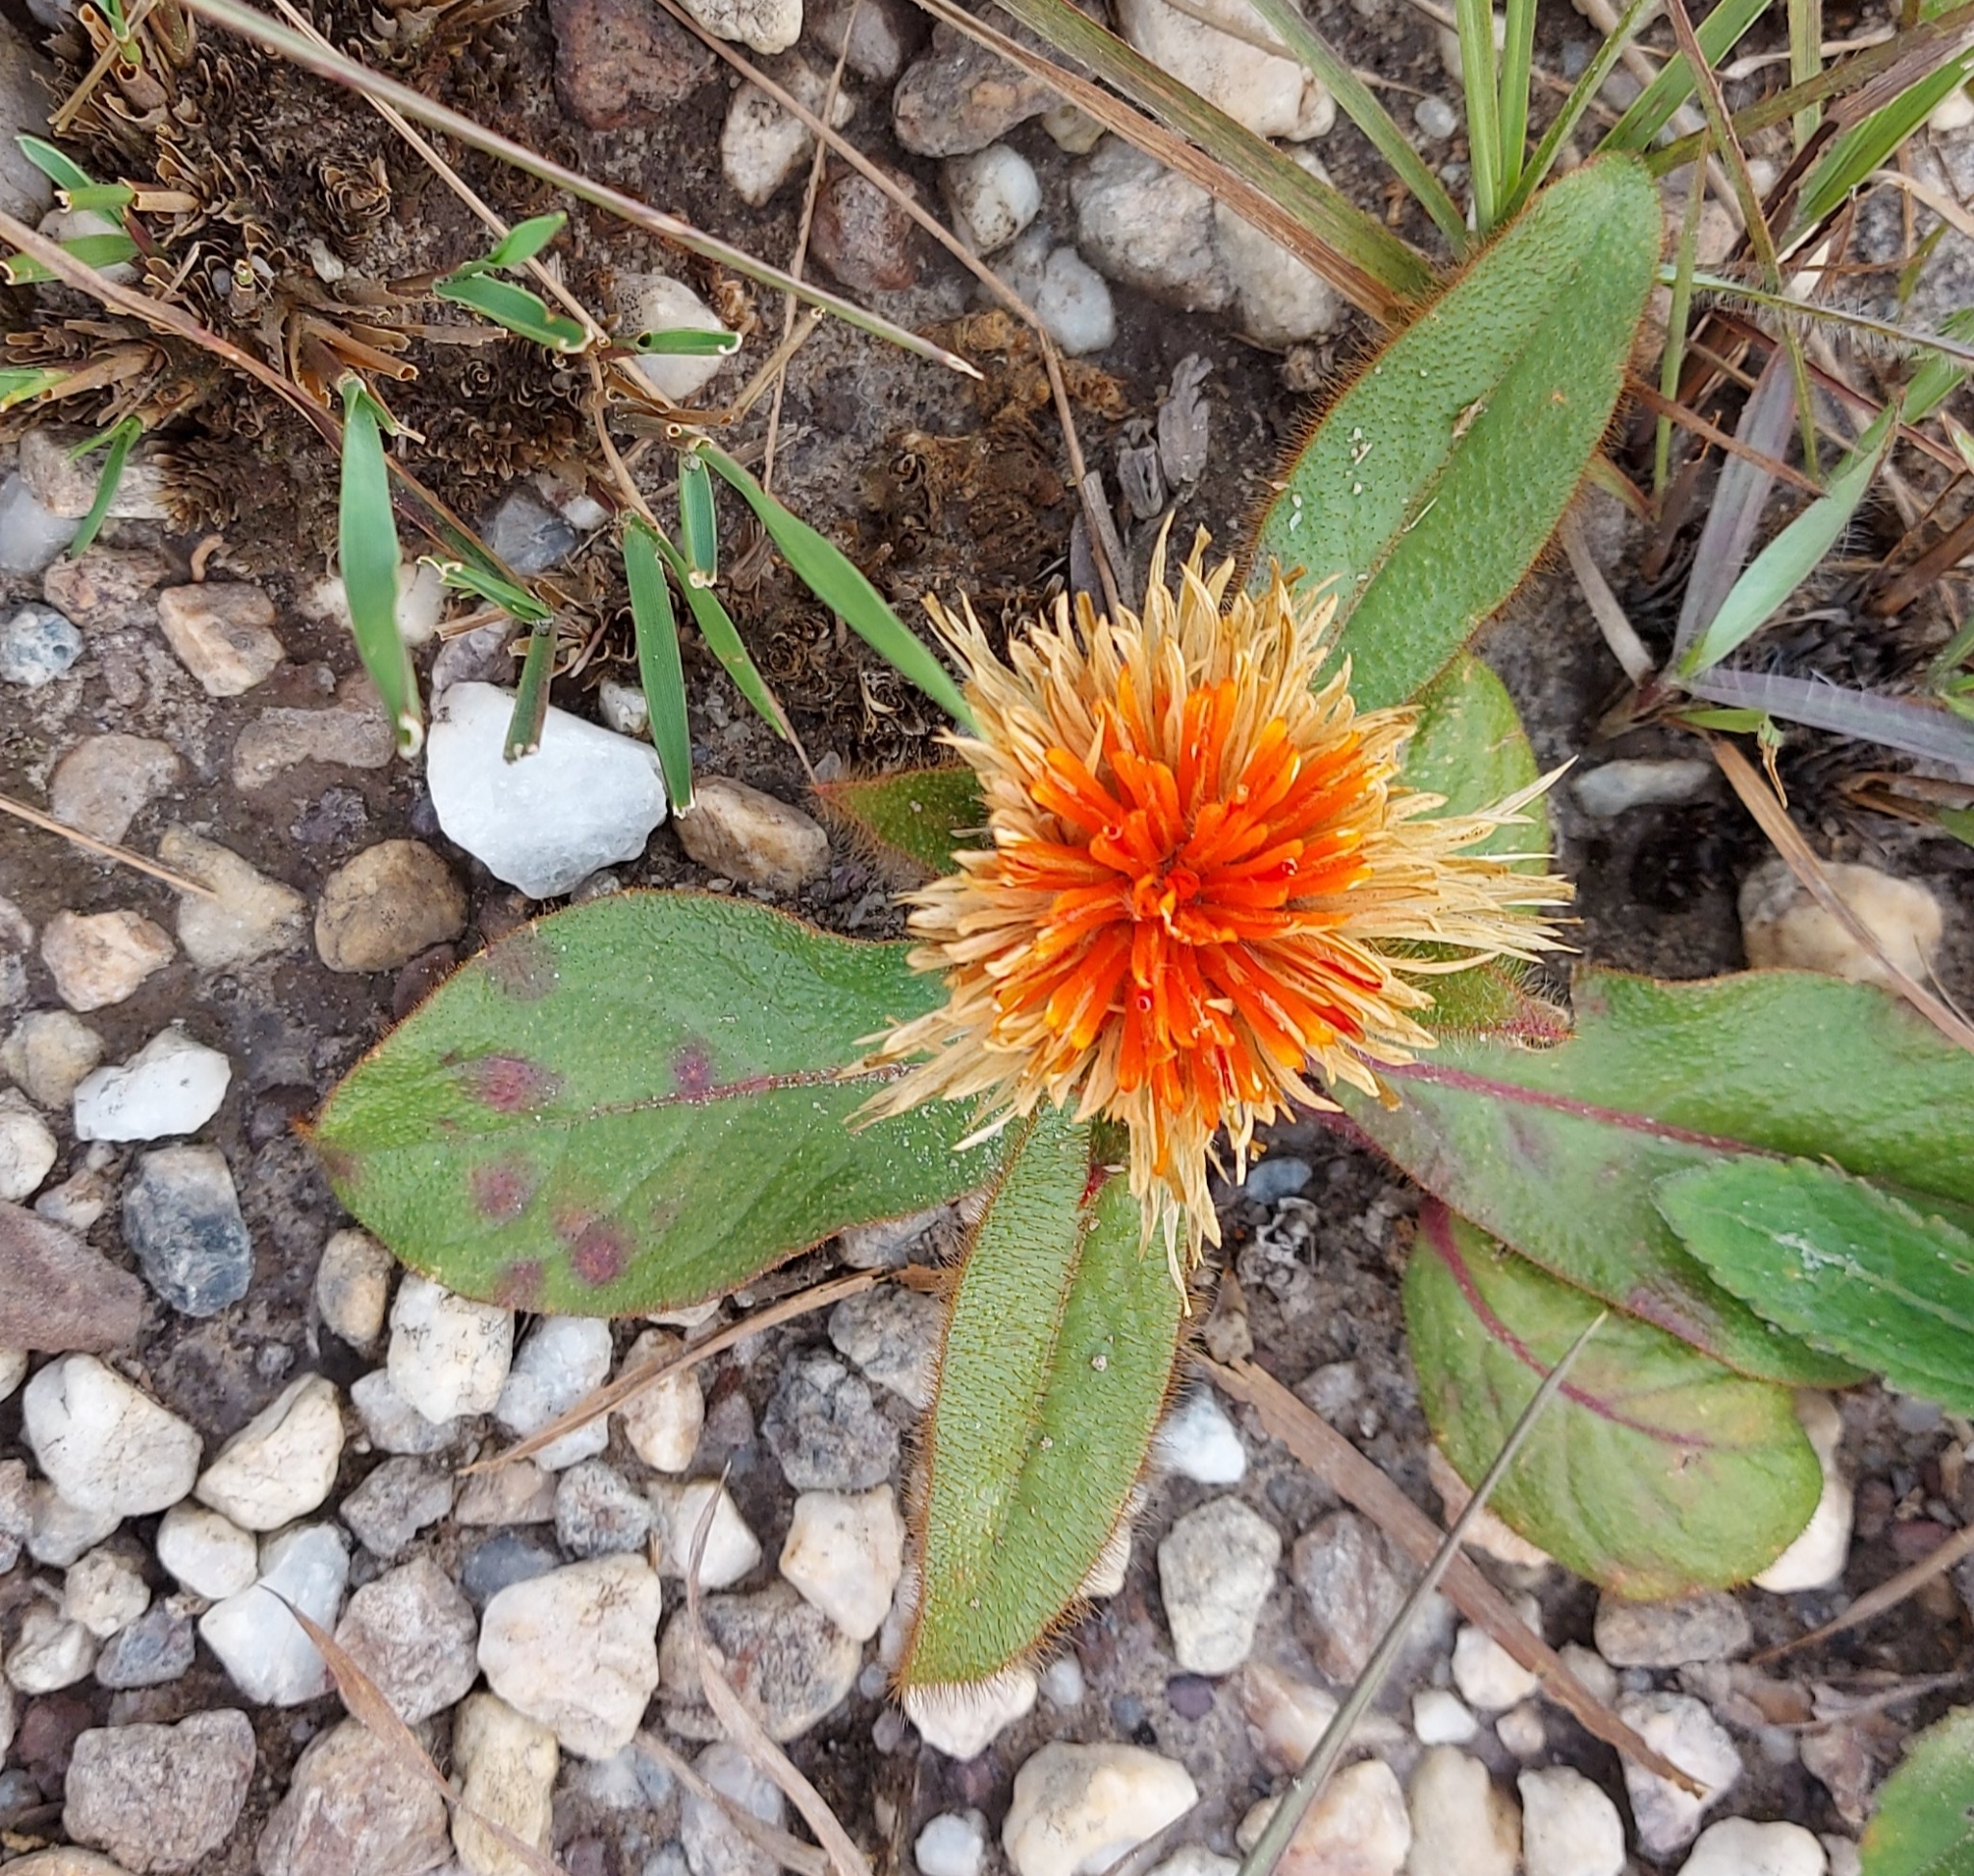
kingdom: Plantae
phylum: Tracheophyta
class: Magnoliopsida
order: Caryophyllales
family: Amaranthaceae
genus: Gomphrena
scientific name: Gomphrena arborescens
